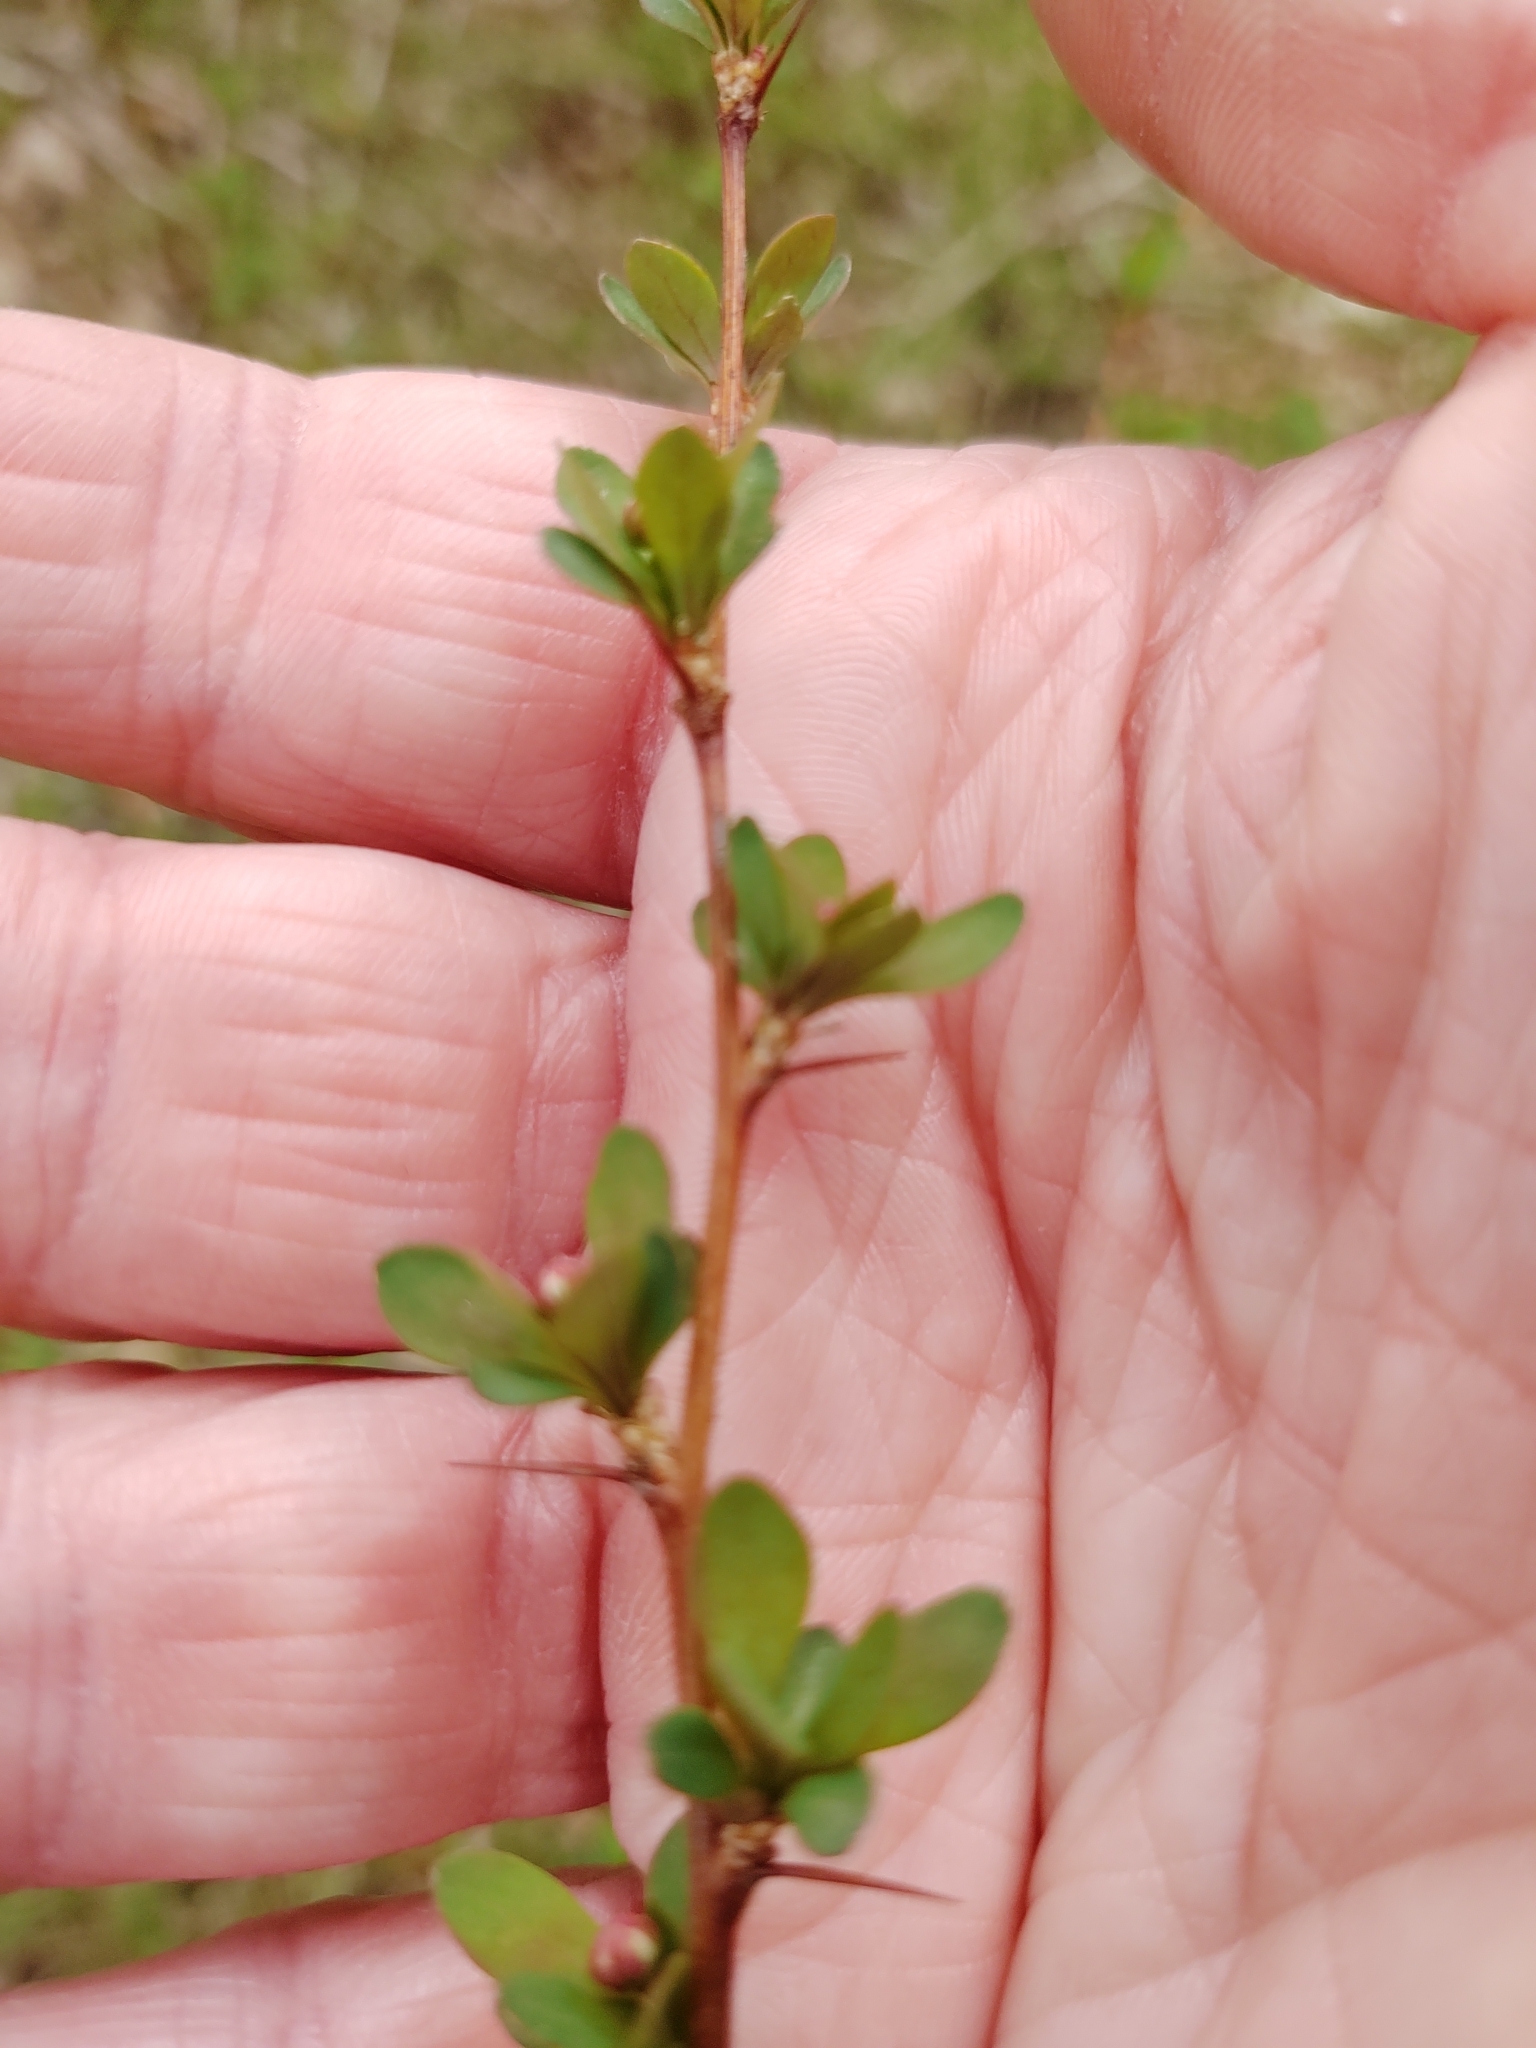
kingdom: Plantae
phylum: Tracheophyta
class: Magnoliopsida
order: Ranunculales
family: Berberidaceae
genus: Berberis
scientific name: Berberis thunbergii
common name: Japanese barberry
